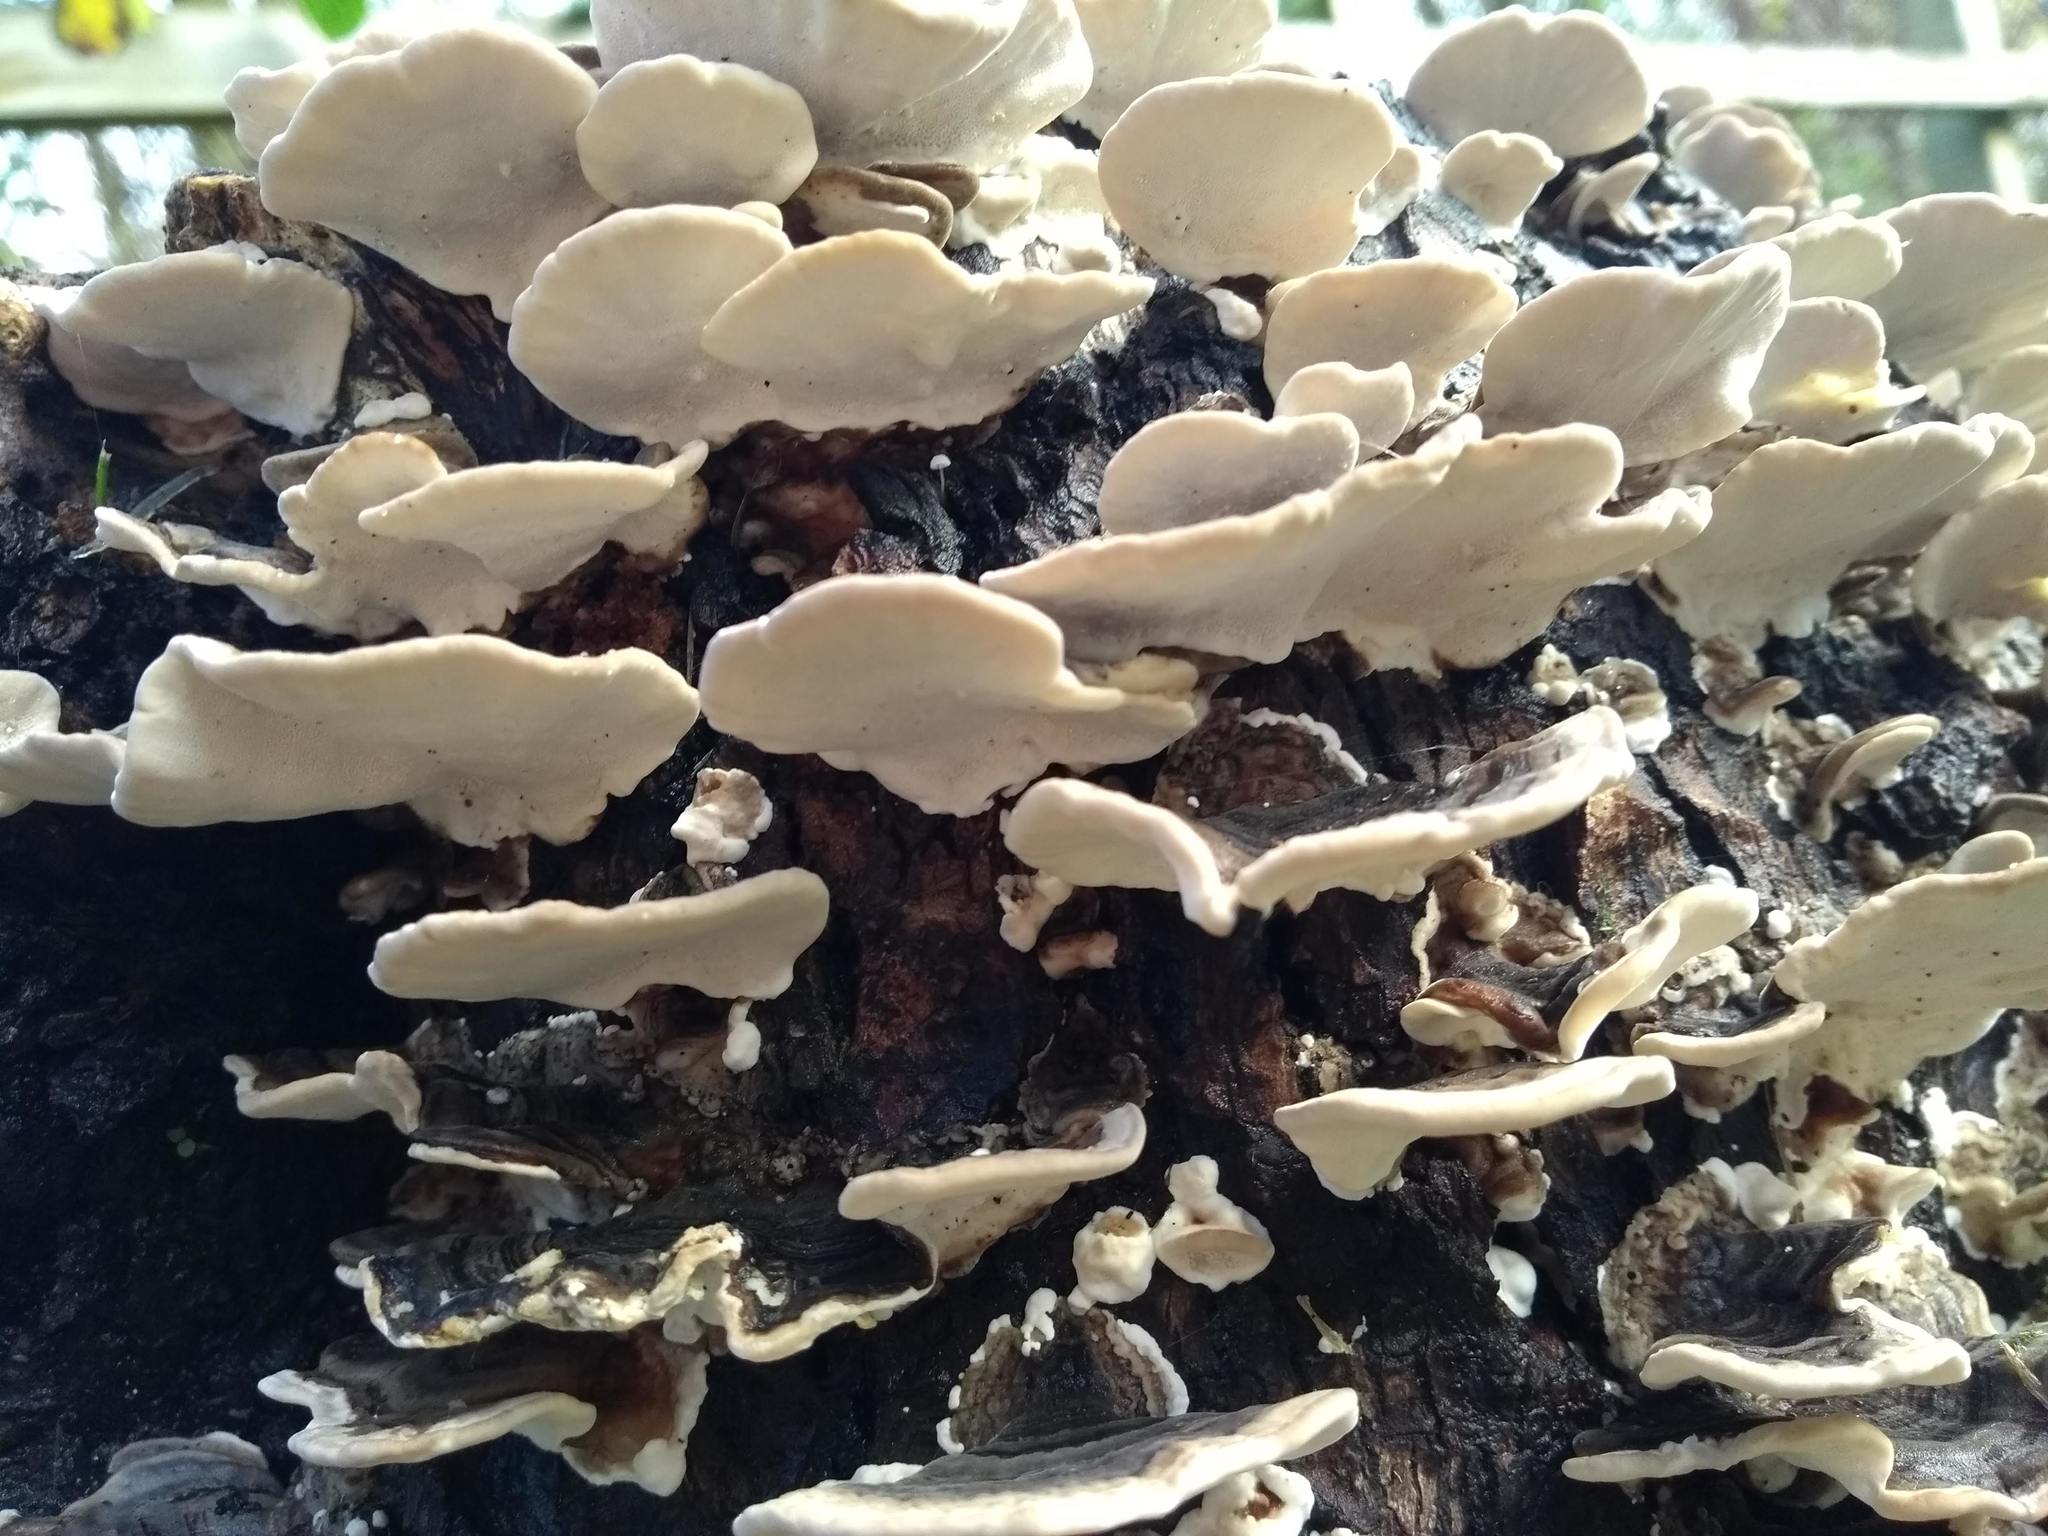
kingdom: Fungi
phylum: Basidiomycota
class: Agaricomycetes
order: Polyporales
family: Polyporaceae
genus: Trametes
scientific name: Trametes versicolor
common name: Turkeytail
